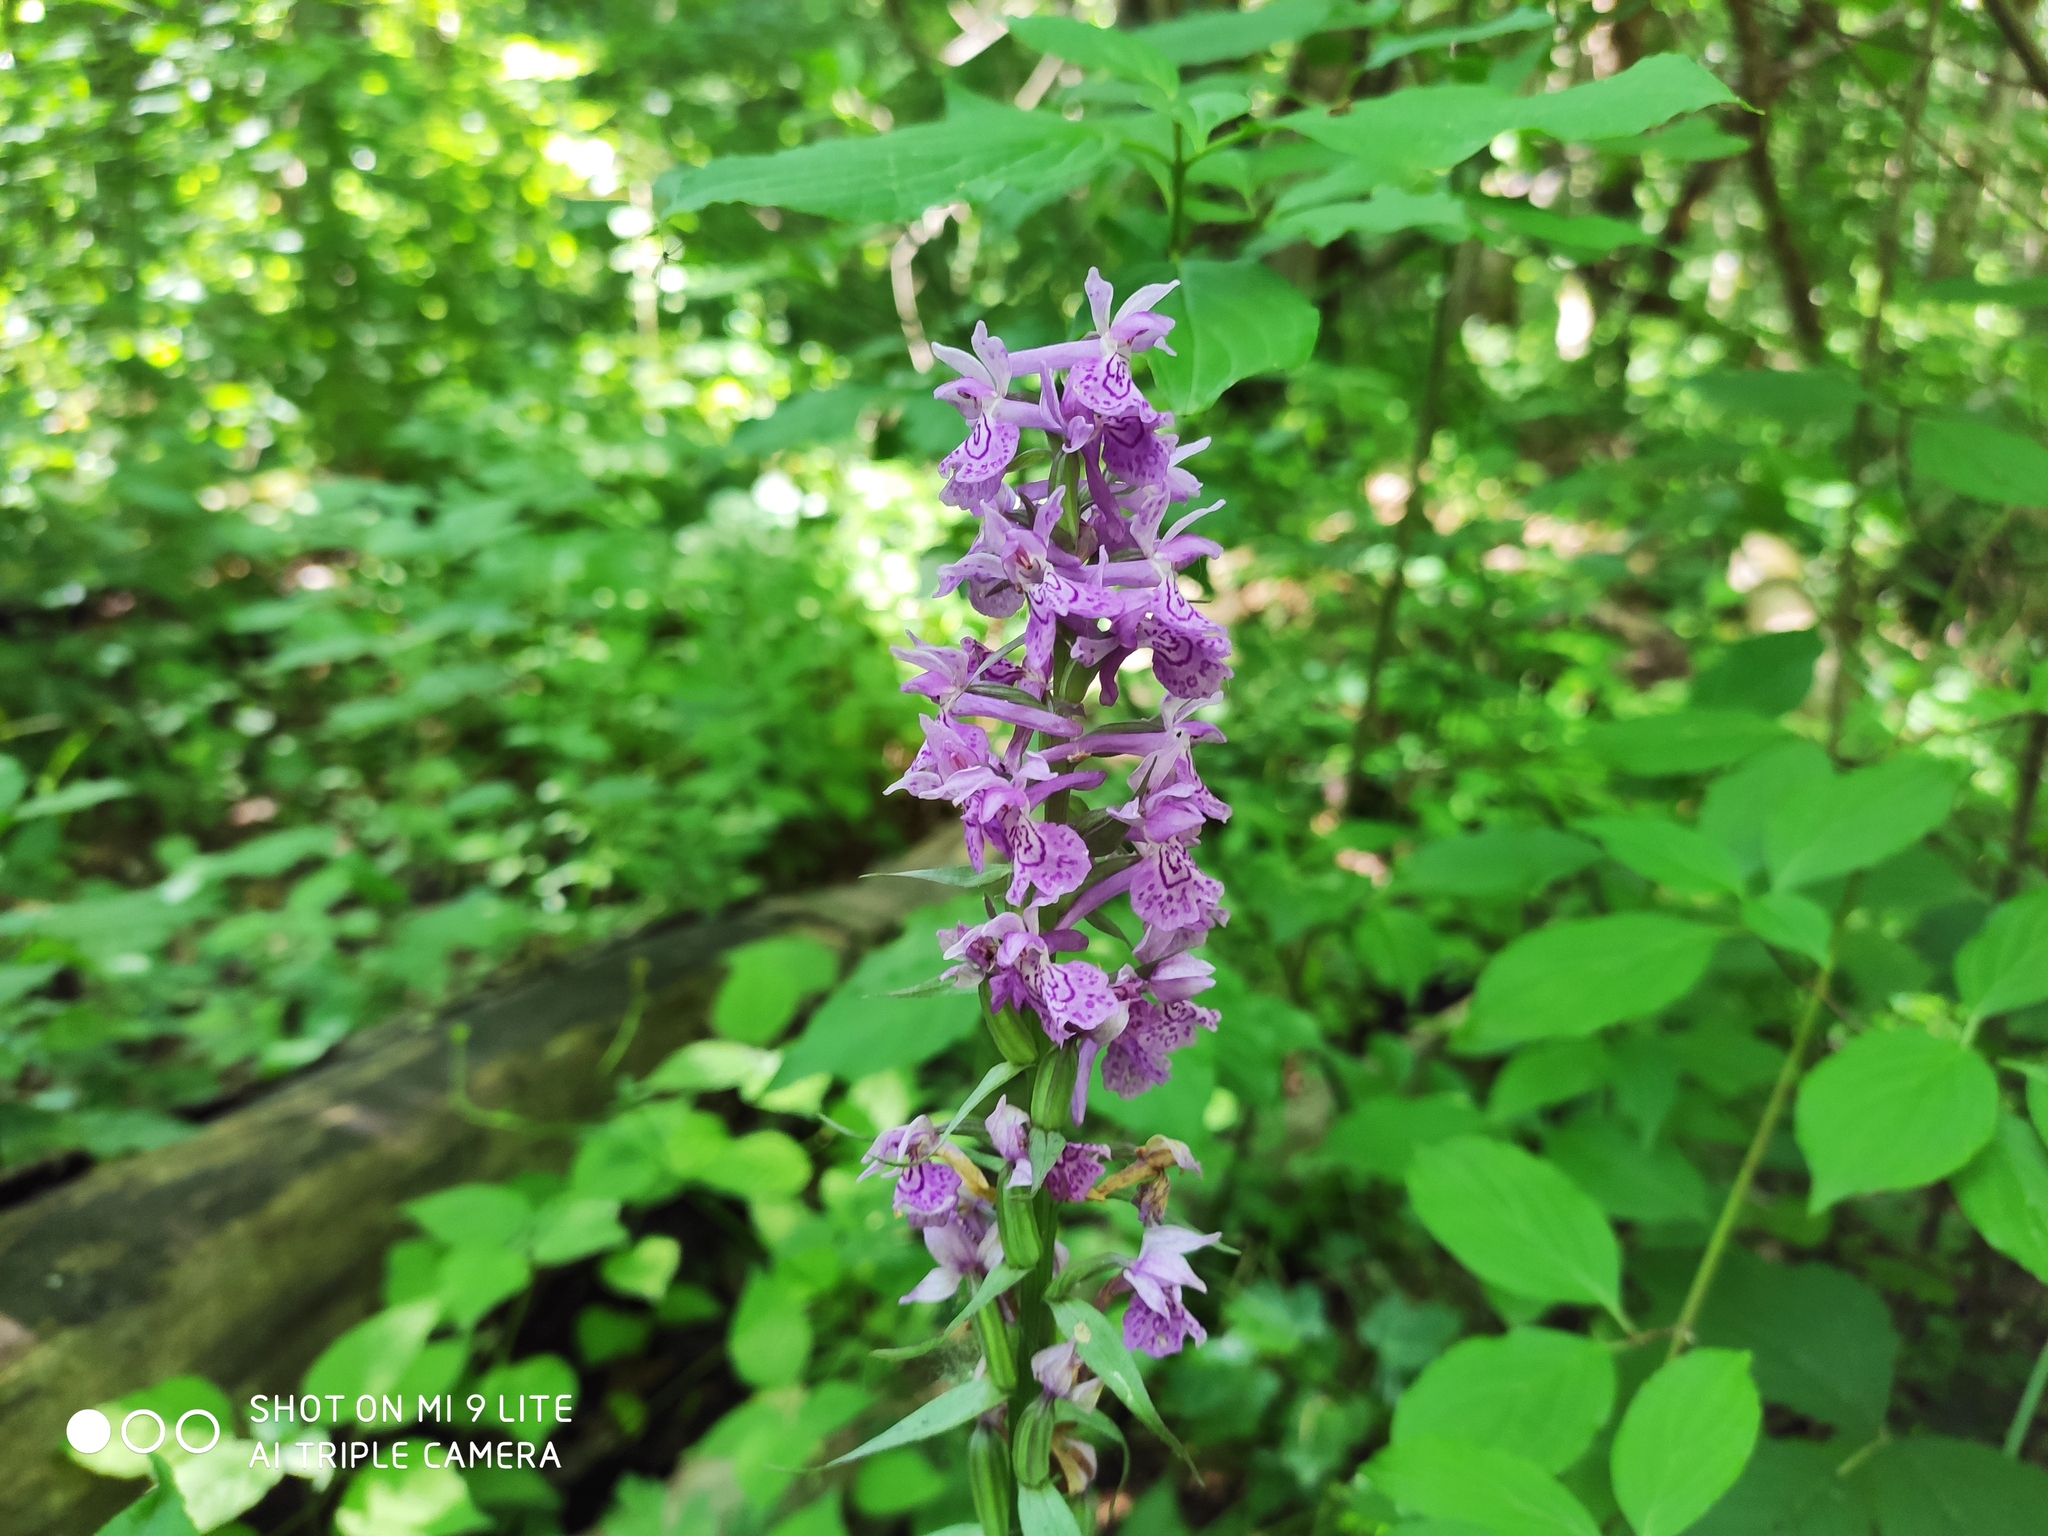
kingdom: Plantae
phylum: Tracheophyta
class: Liliopsida
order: Asparagales
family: Orchidaceae
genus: Dactylorhiza
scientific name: Dactylorhiza urvilleana
